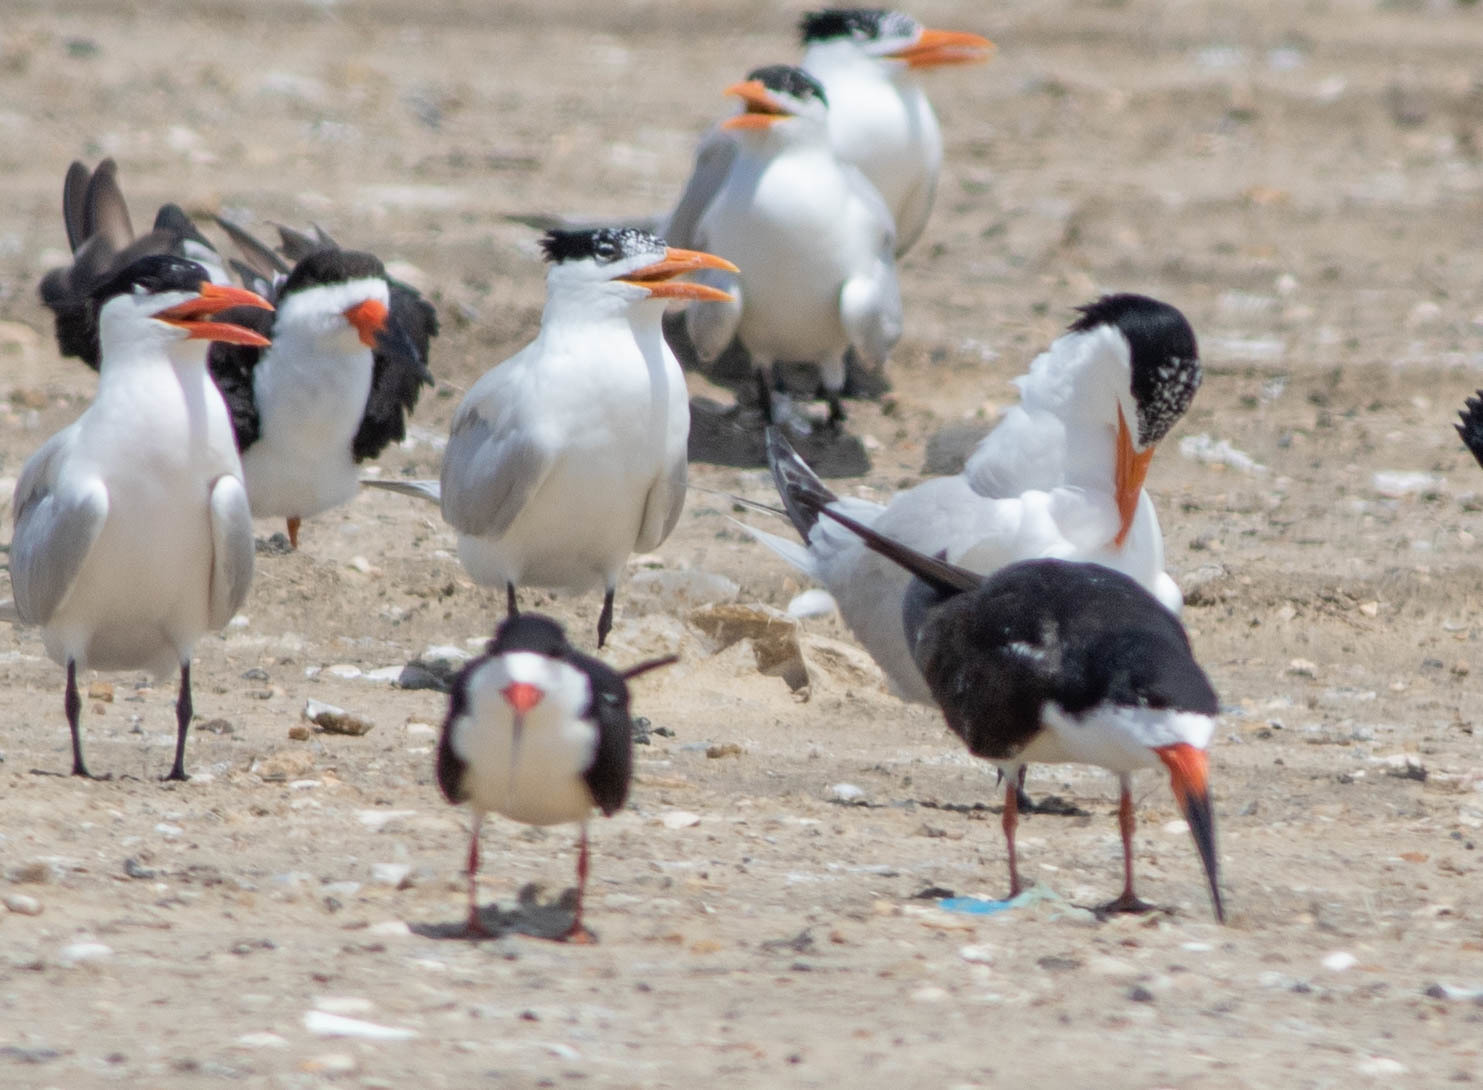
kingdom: Animalia
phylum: Chordata
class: Aves
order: Charadriiformes
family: Laridae
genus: Rynchops
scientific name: Rynchops niger
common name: Black skimmer
